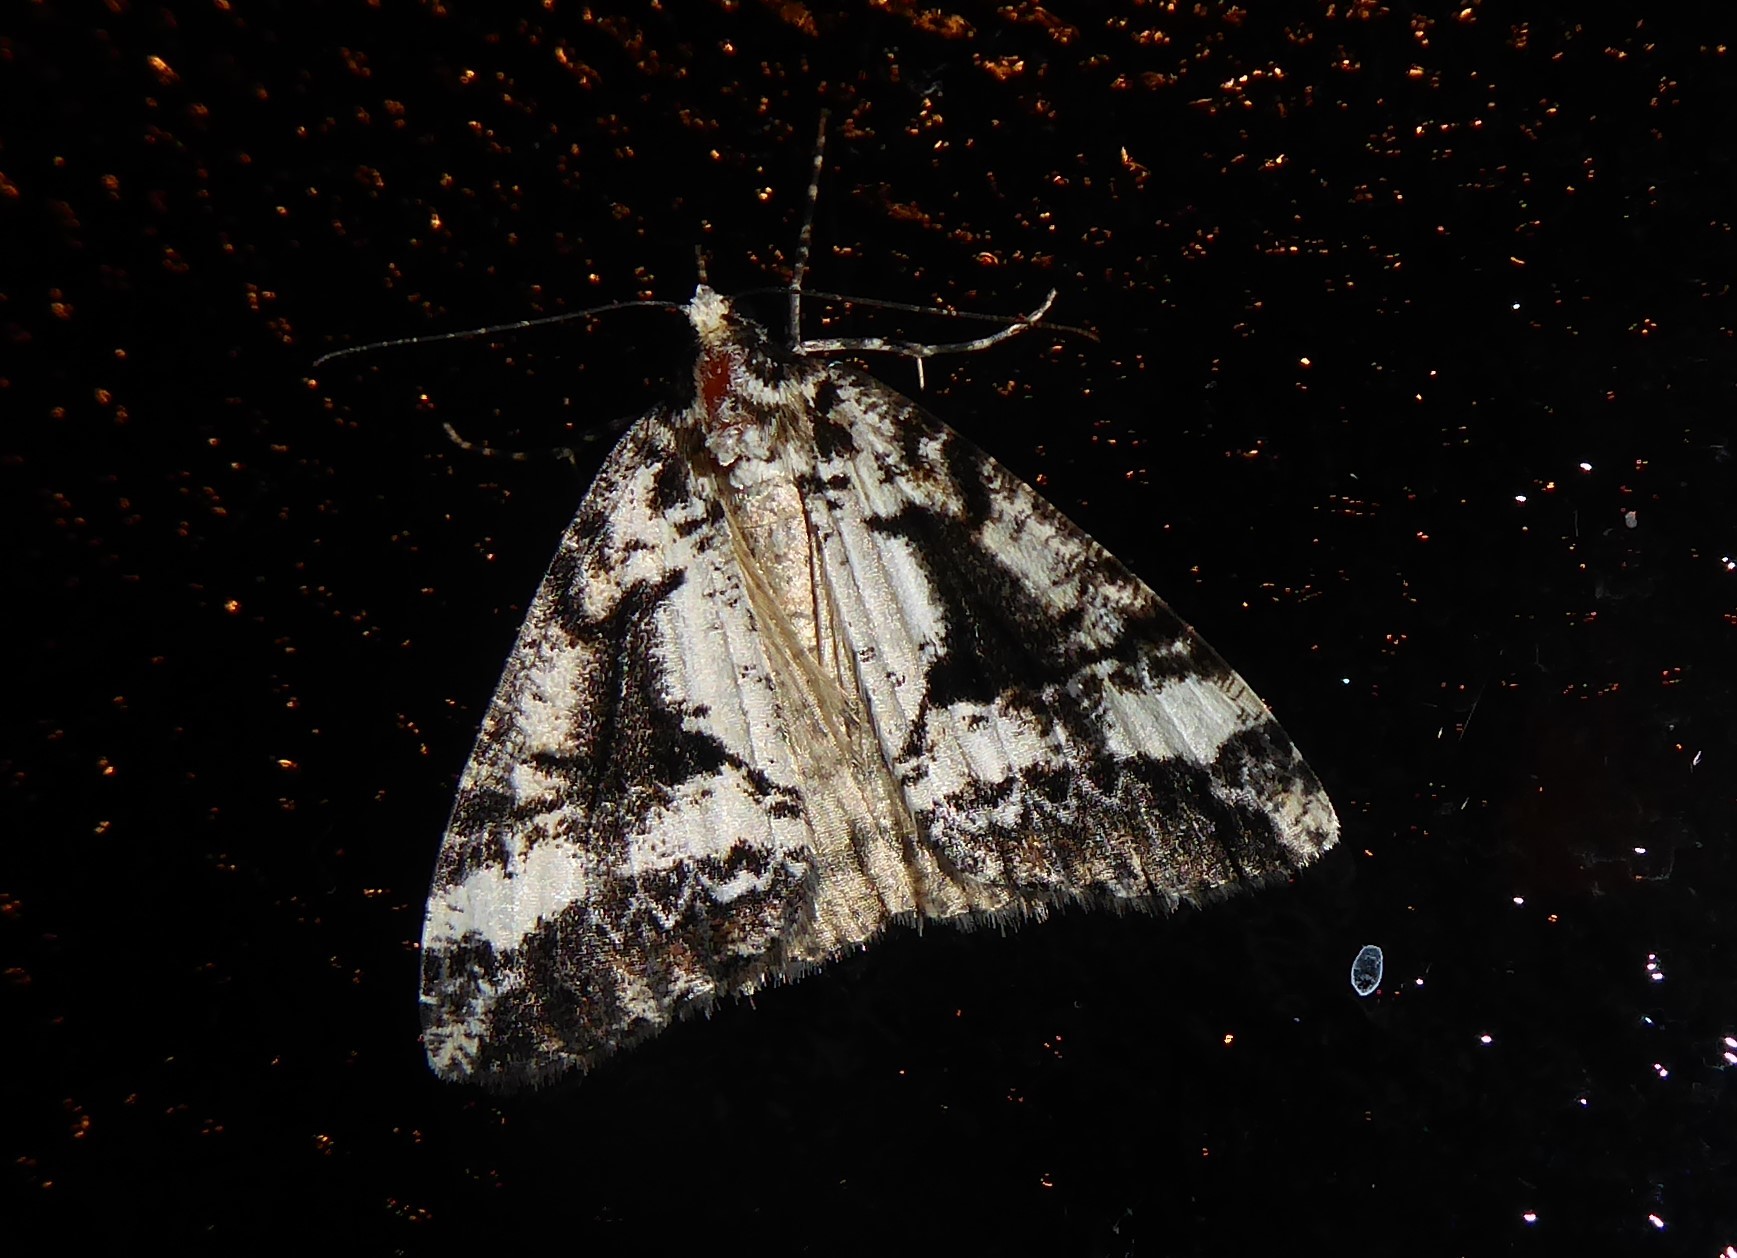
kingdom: Animalia
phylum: Arthropoda
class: Insecta
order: Lepidoptera
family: Geometridae
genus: Pseudocoremia
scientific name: Pseudocoremia leucelaea
